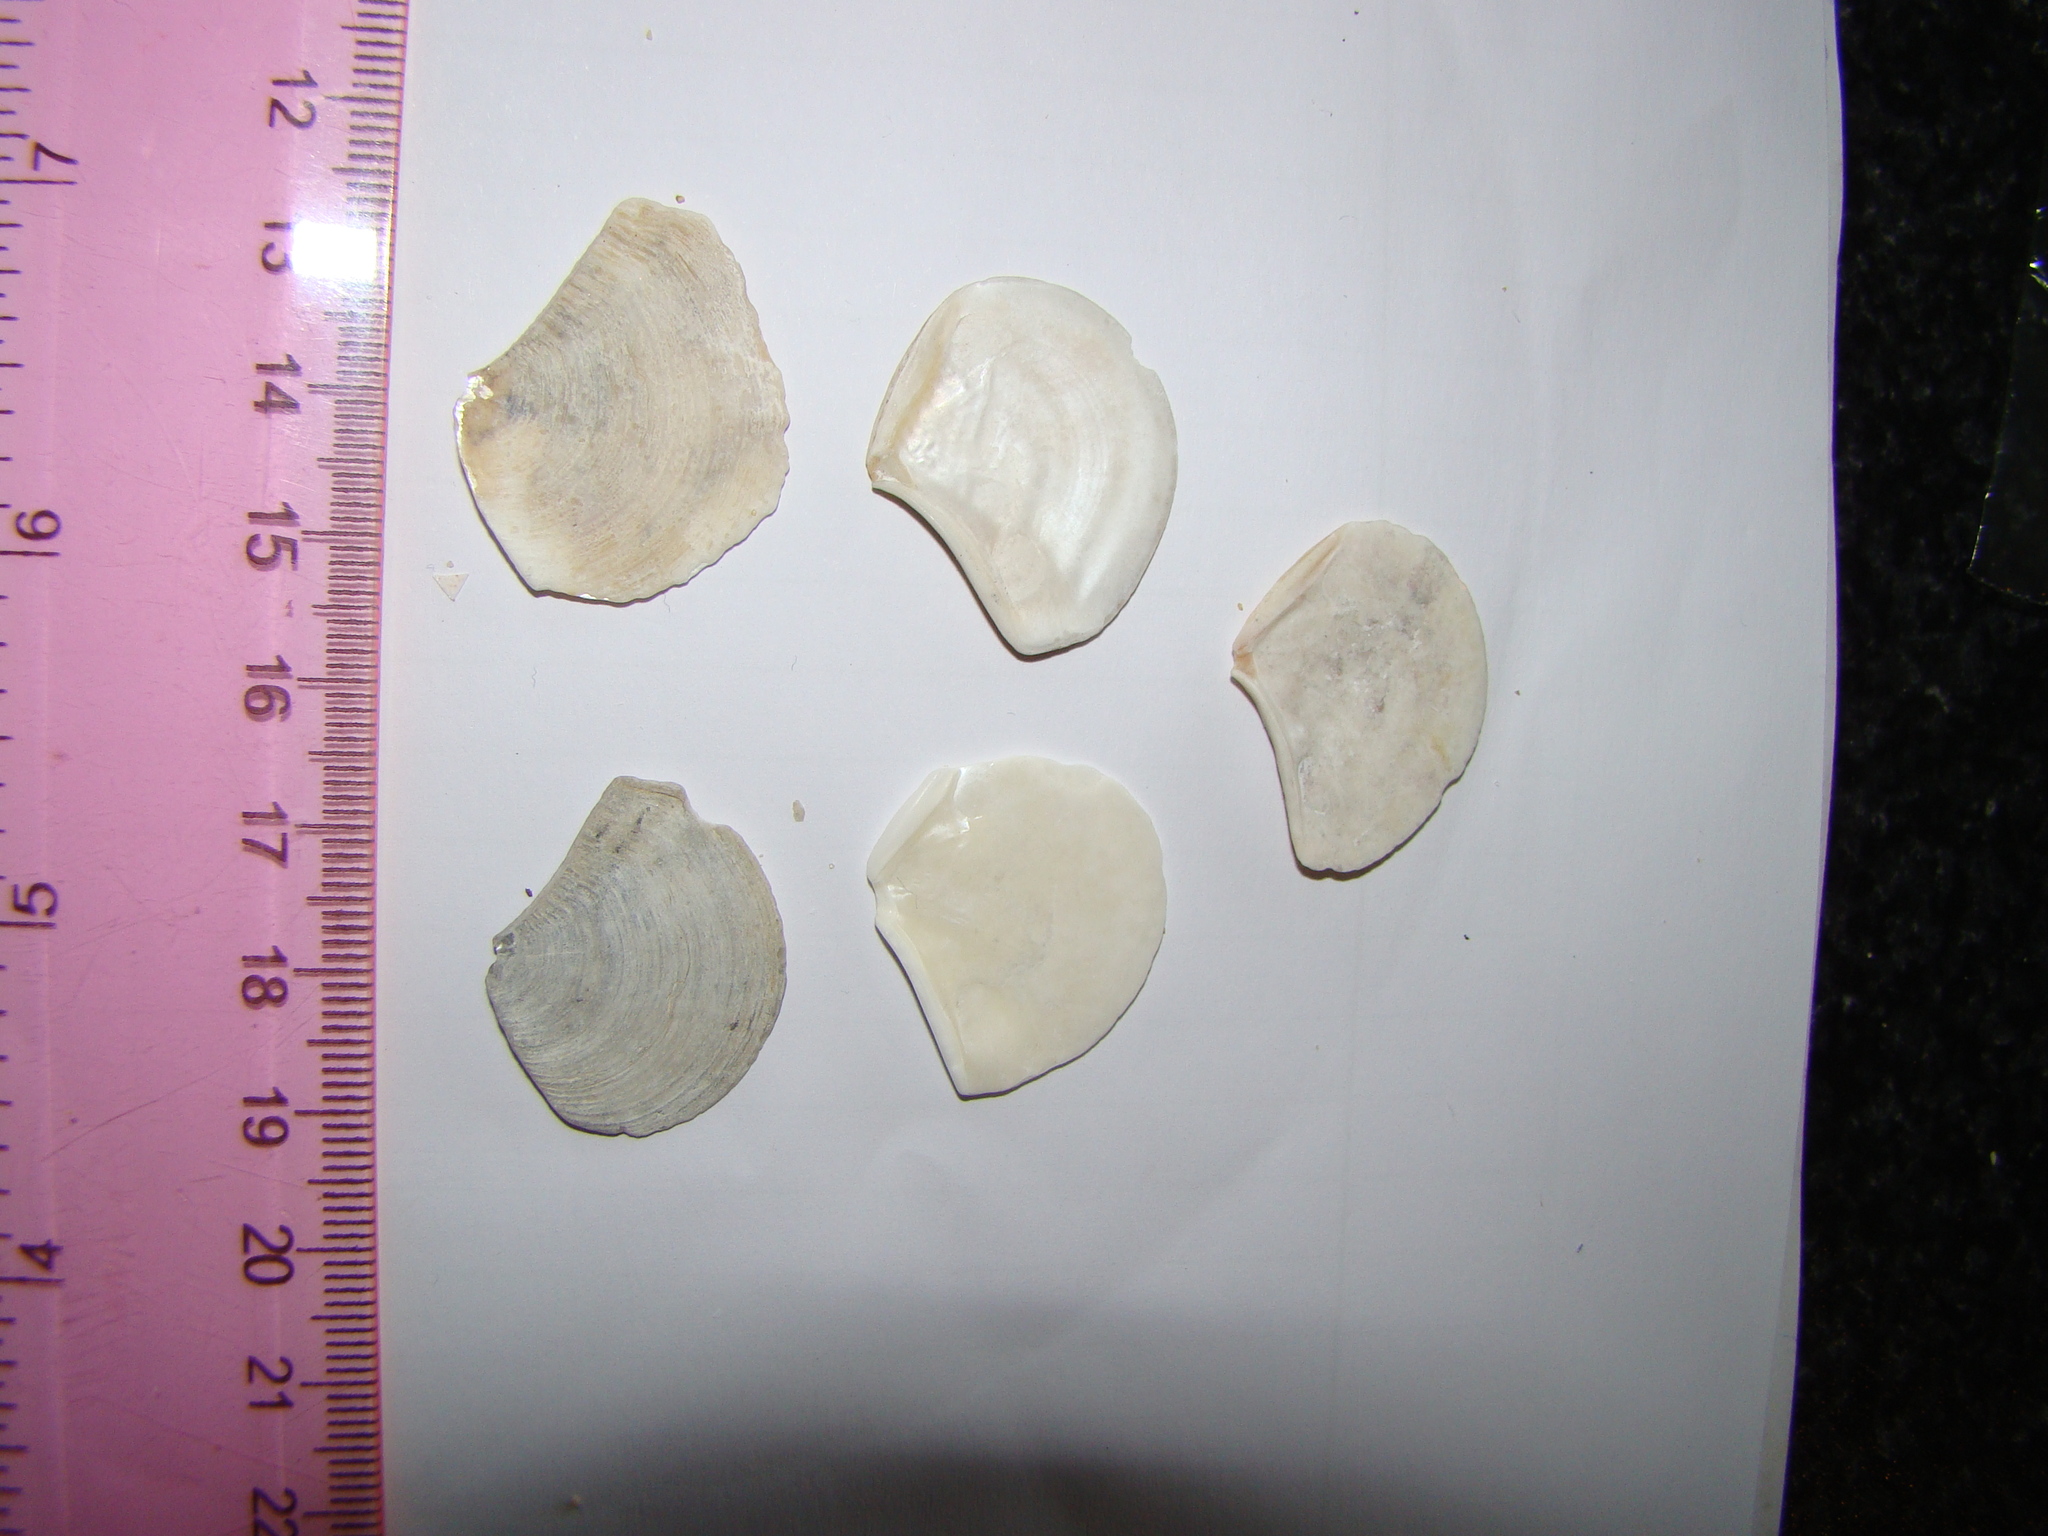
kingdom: Animalia
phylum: Mollusca
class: Bivalvia
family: Myochamidae
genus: Myadora
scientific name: Myadora striata
